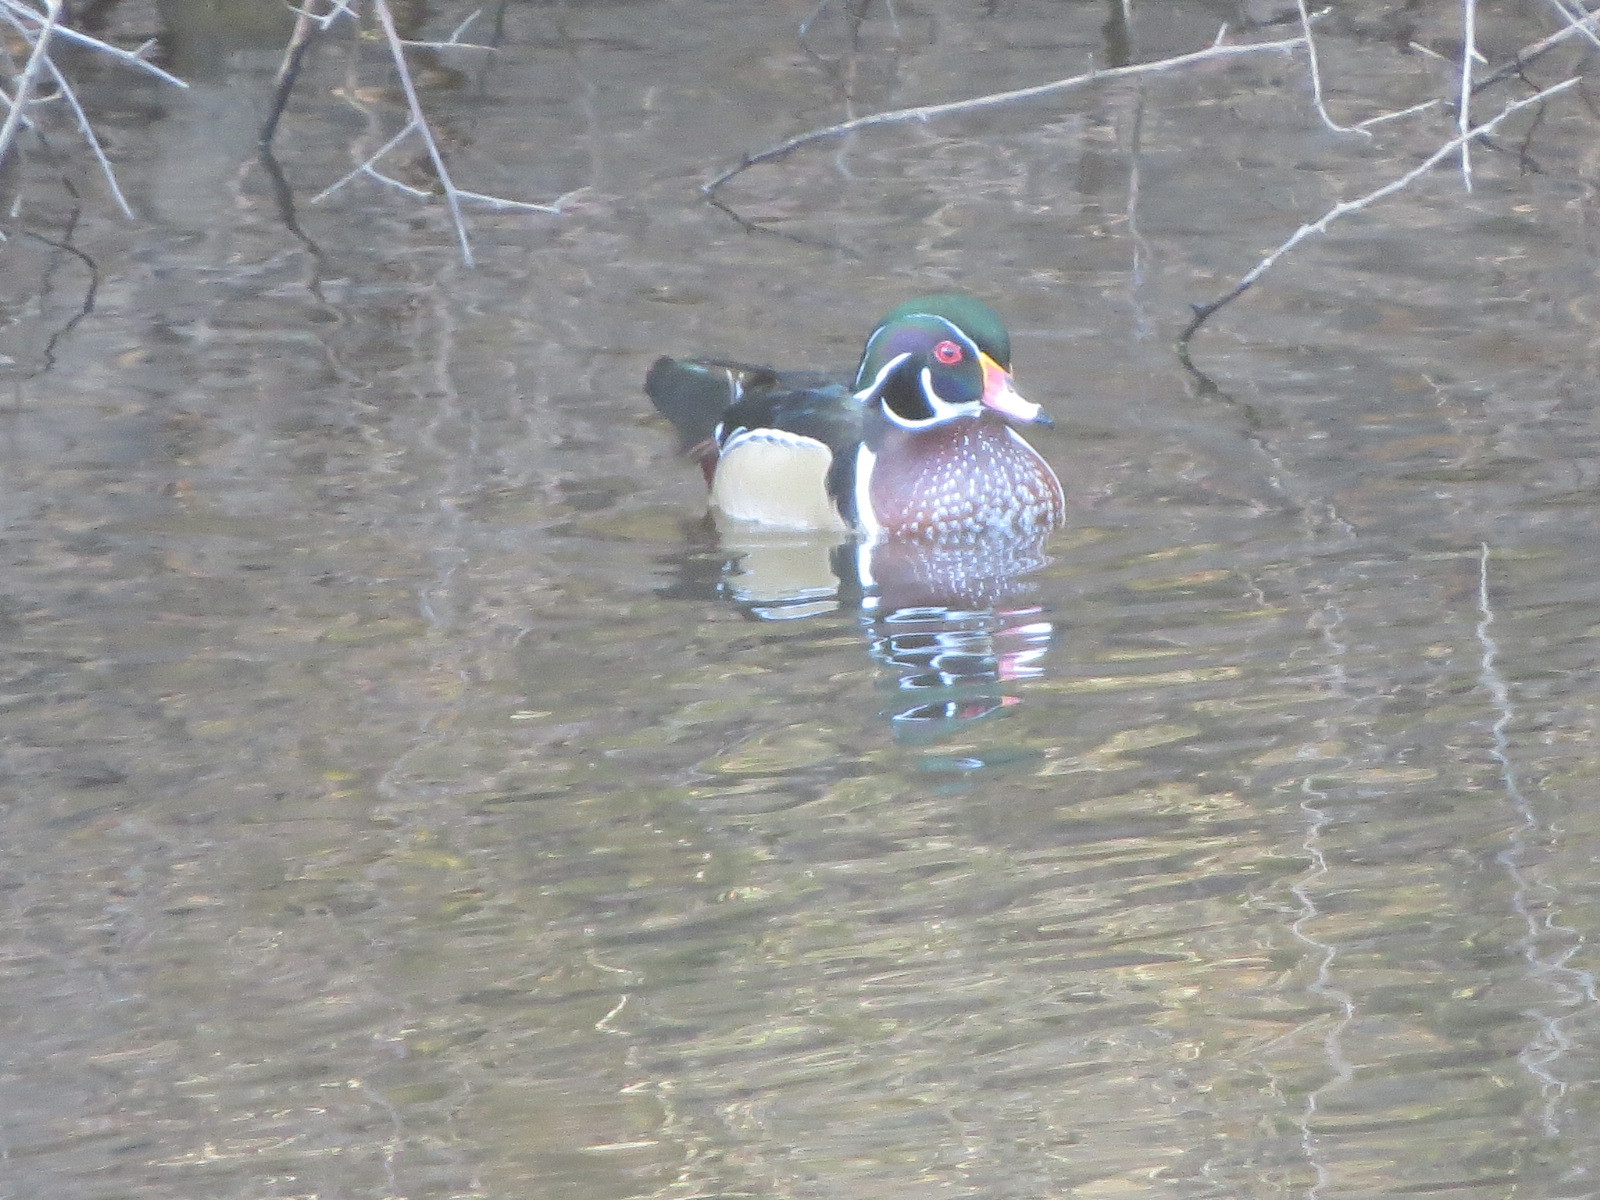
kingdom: Animalia
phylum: Chordata
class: Aves
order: Anseriformes
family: Anatidae
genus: Aix
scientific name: Aix sponsa
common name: Wood duck
